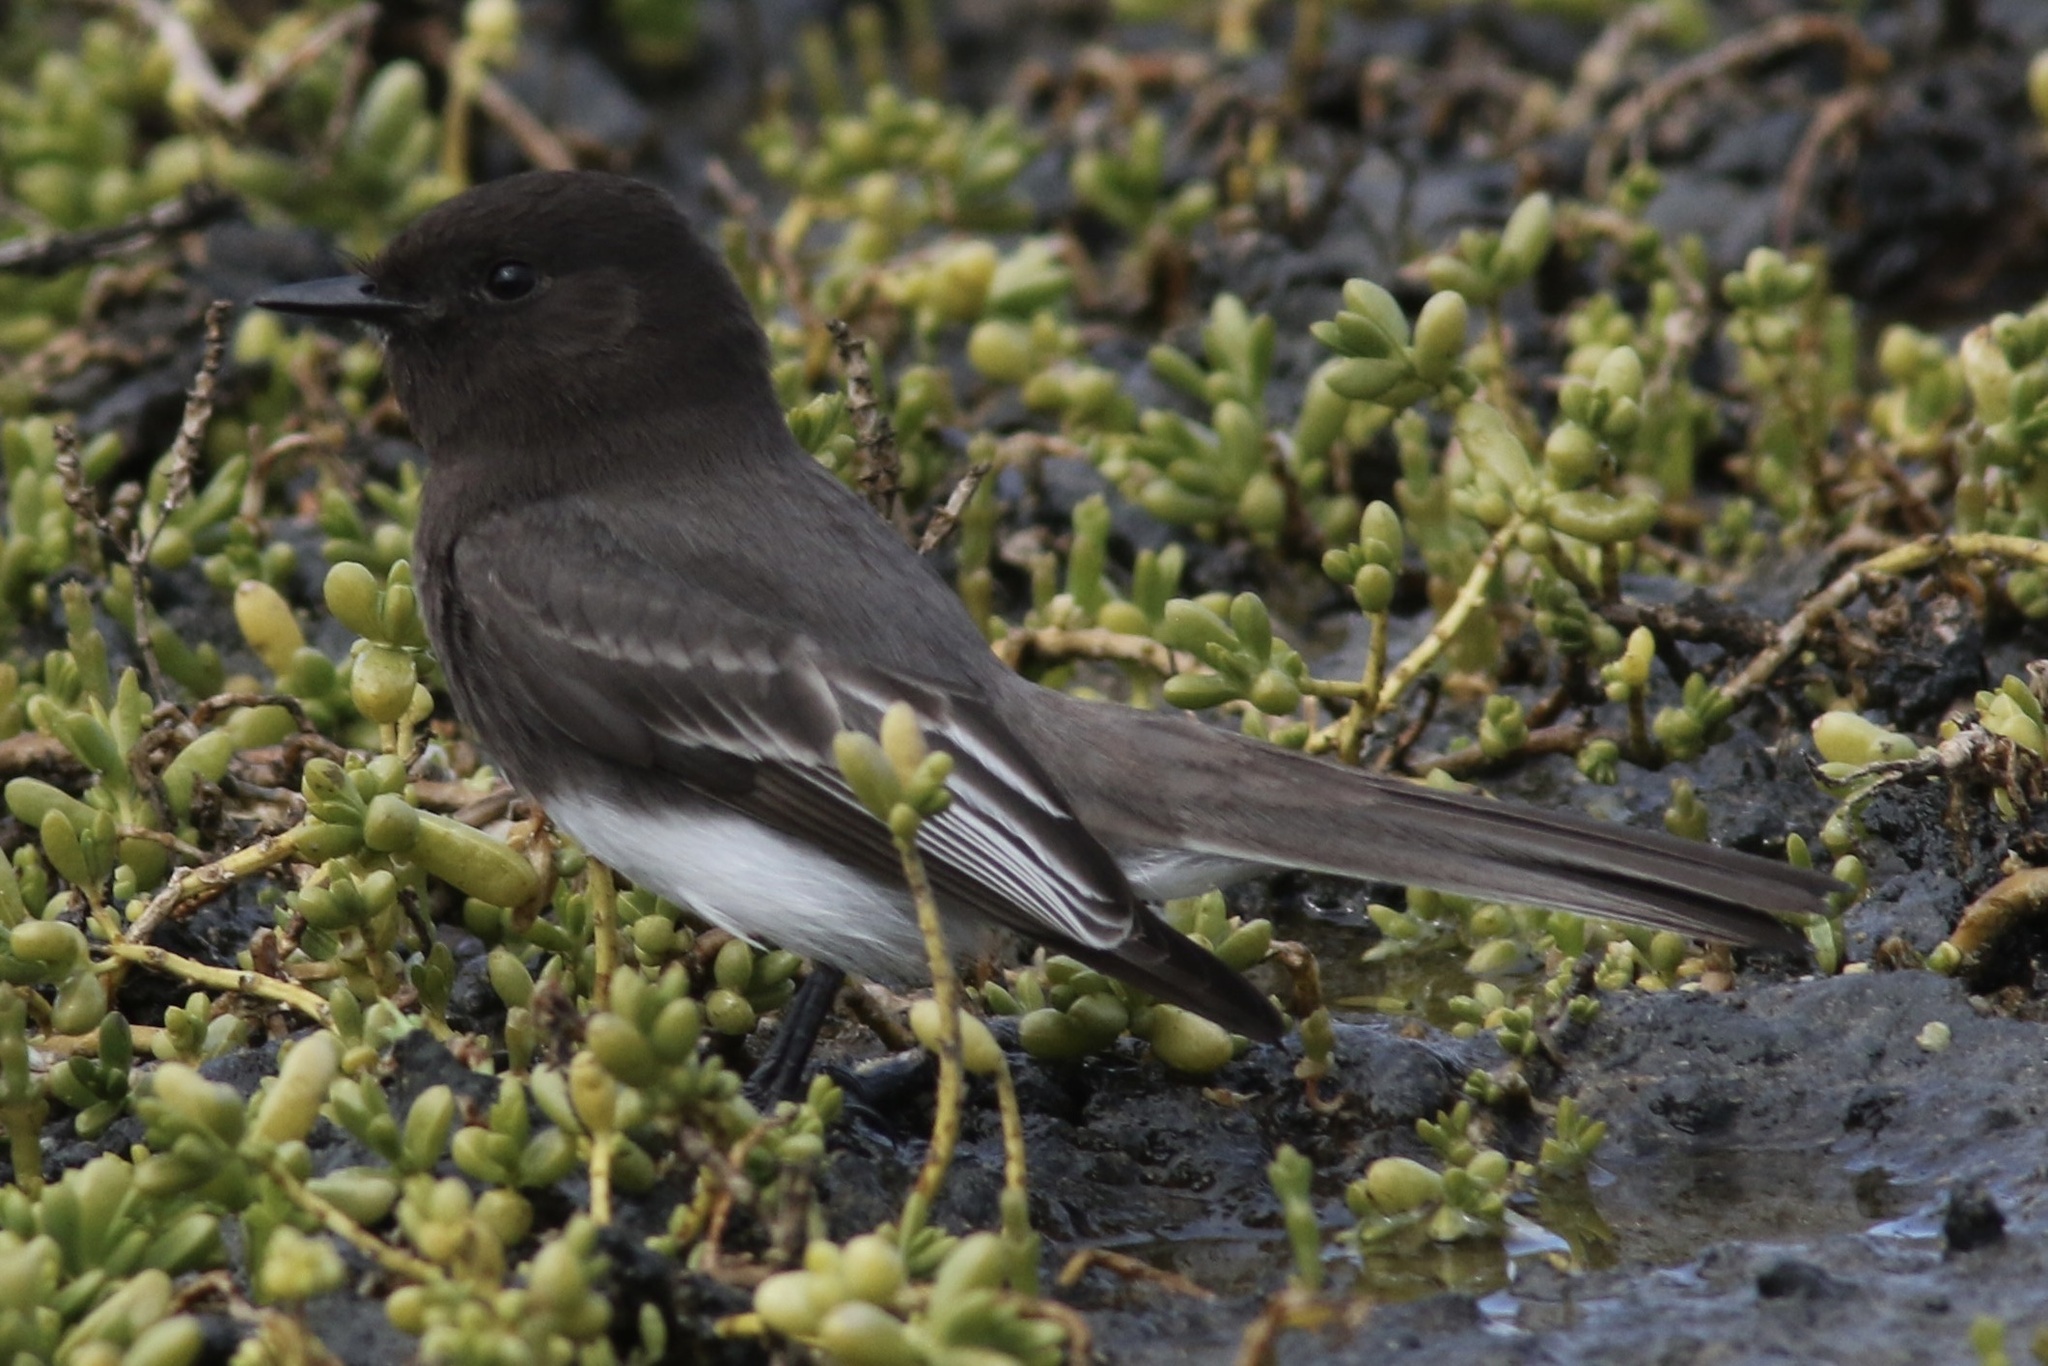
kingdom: Animalia
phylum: Chordata
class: Aves
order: Passeriformes
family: Tyrannidae
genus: Sayornis
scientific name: Sayornis nigricans
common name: Black phoebe
